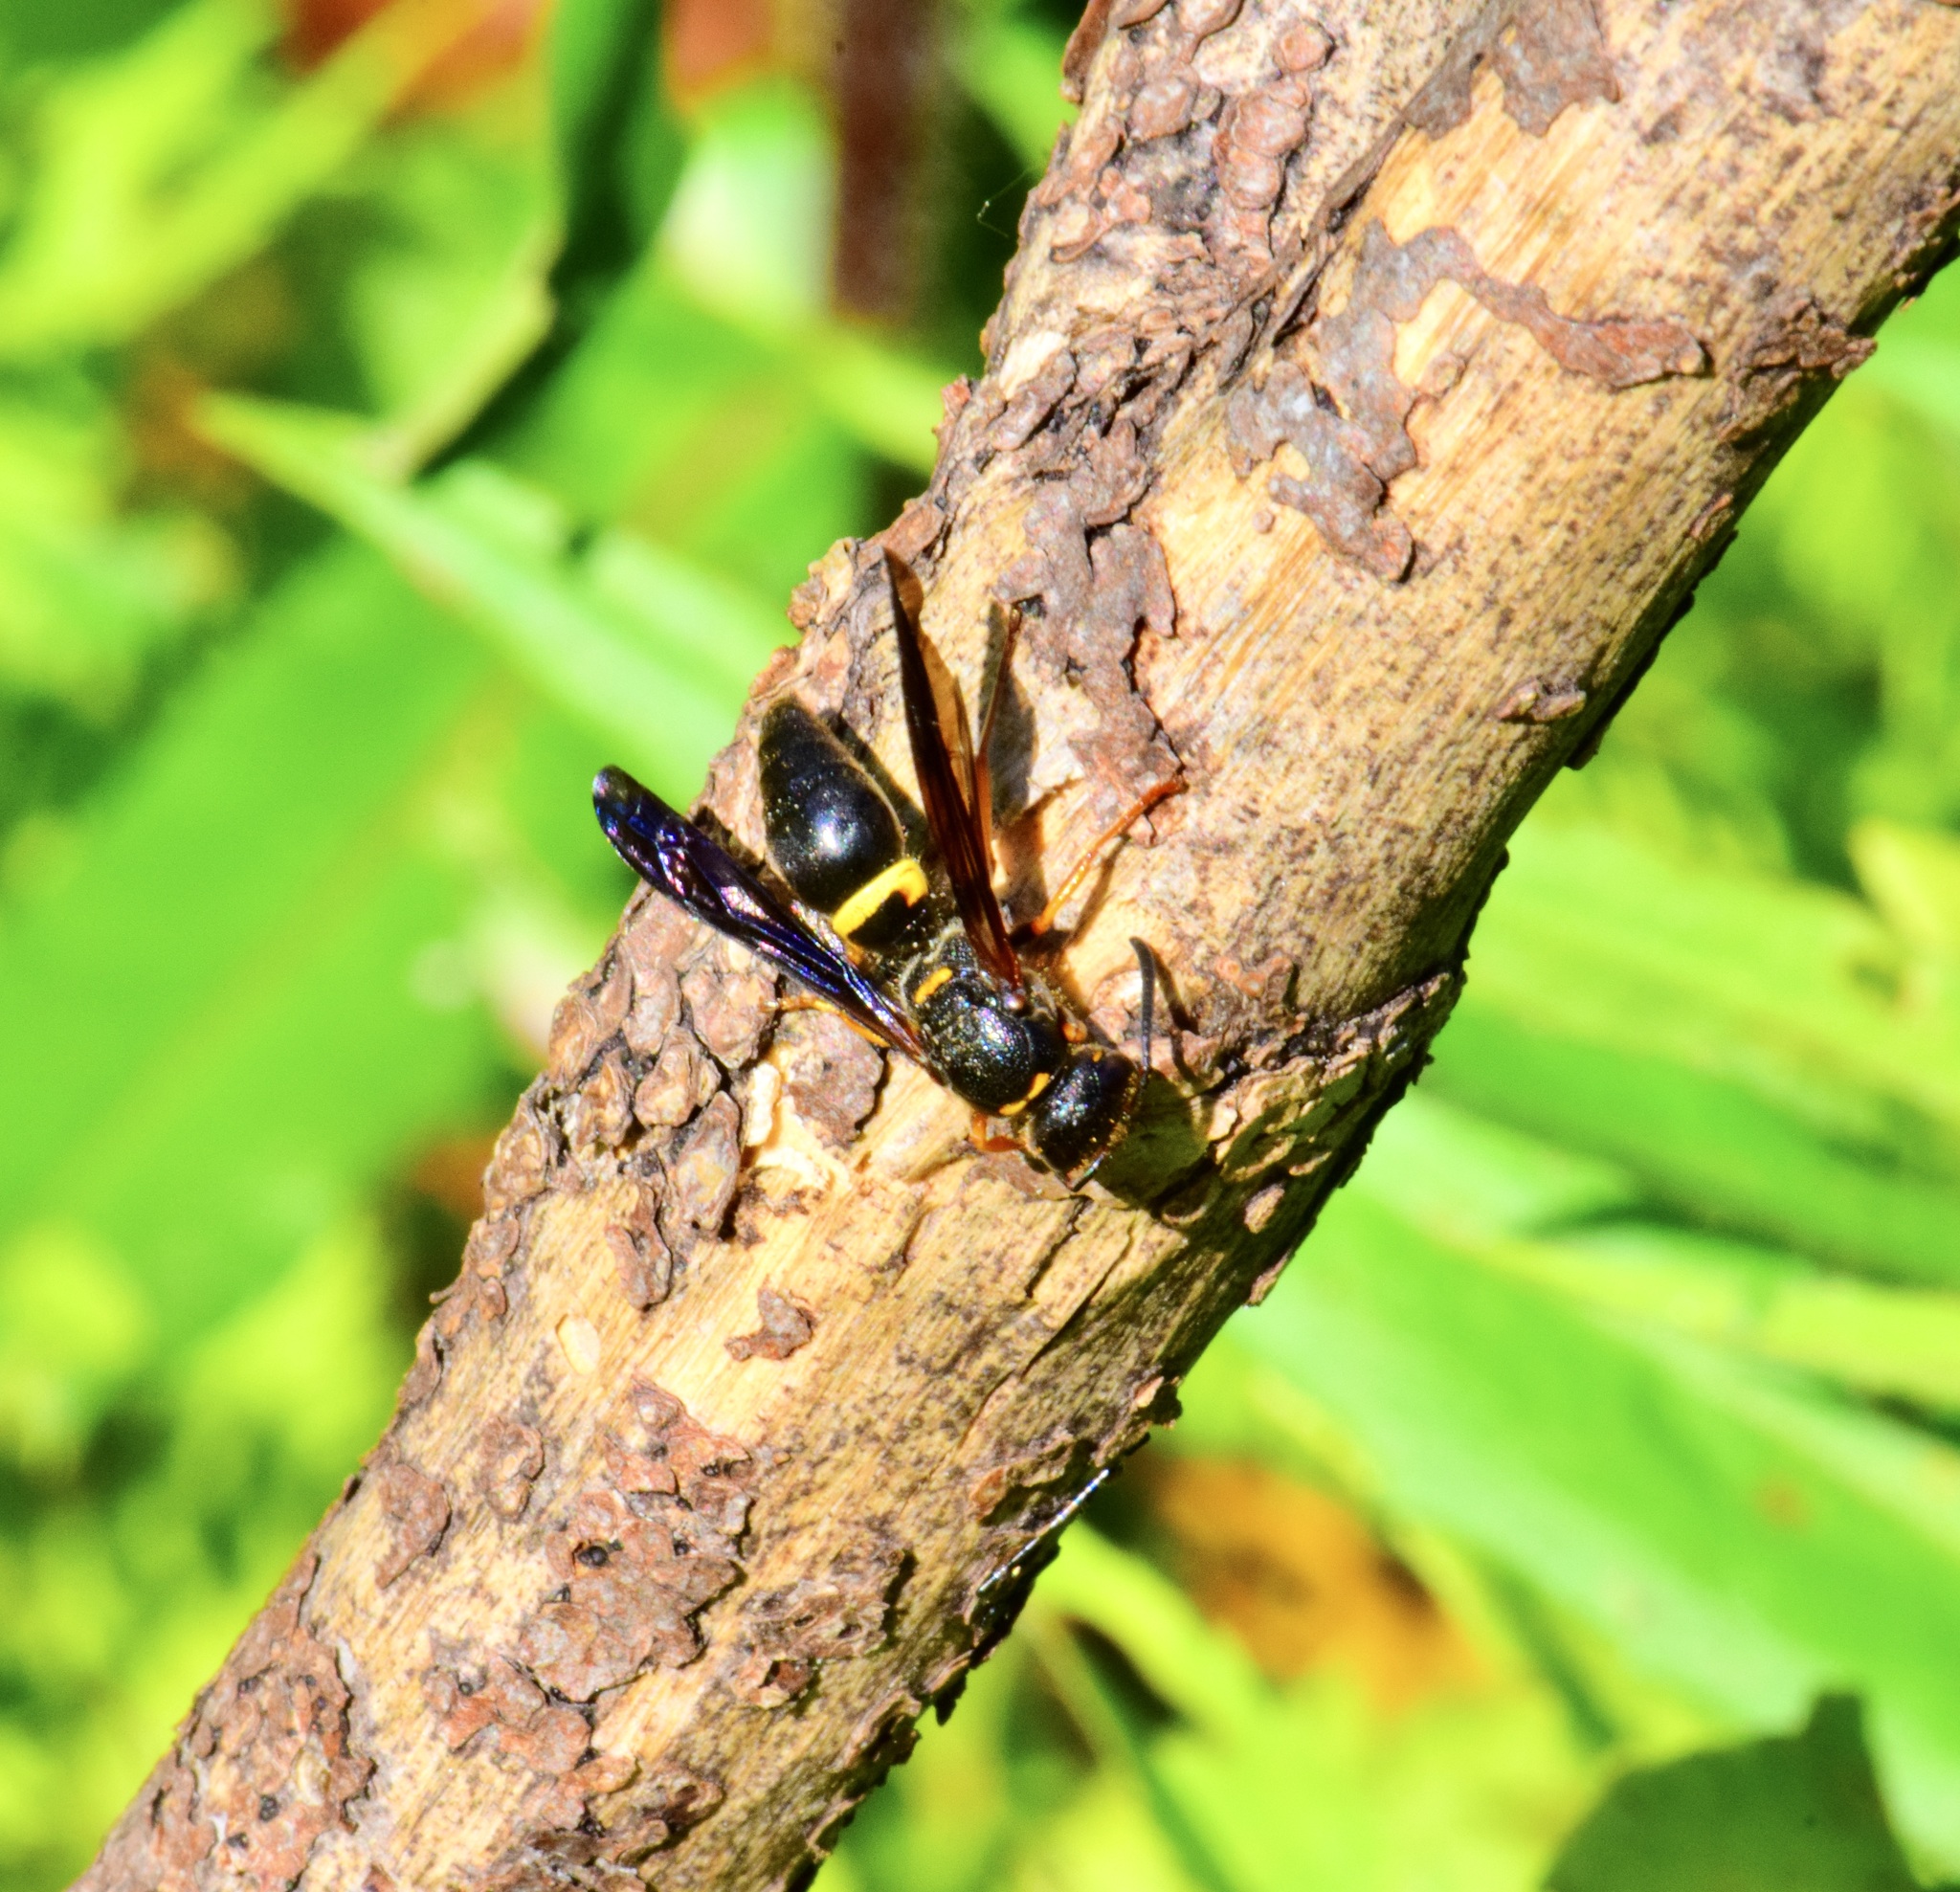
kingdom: Animalia
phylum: Arthropoda
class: Insecta
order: Hymenoptera
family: Vespidae
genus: Ancistrocerus
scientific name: Ancistrocerus unifasciatus
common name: One-banded mason wasp
